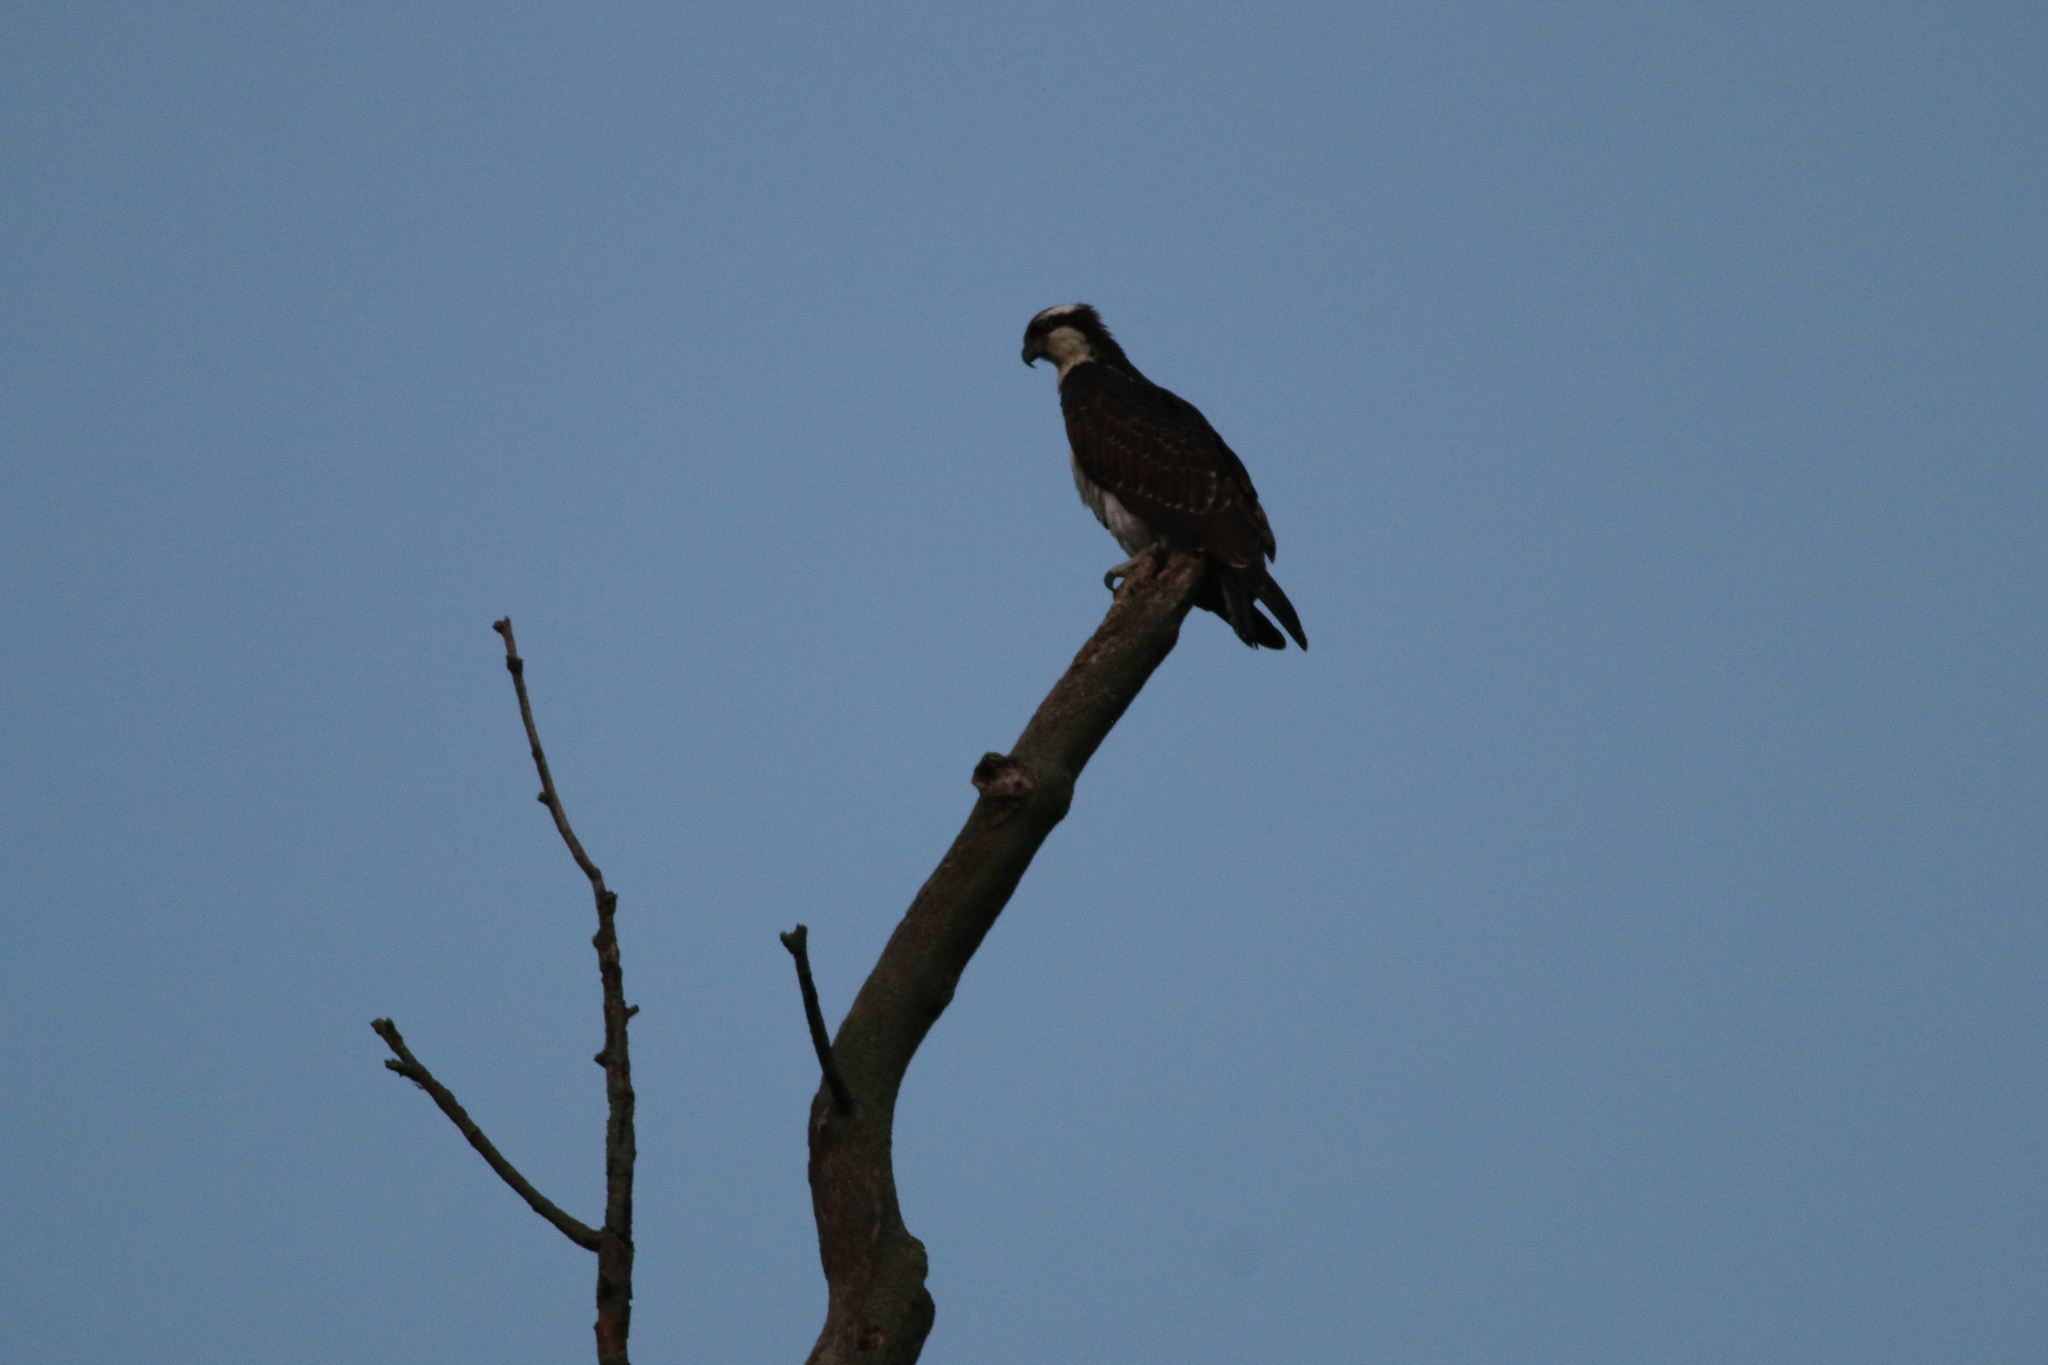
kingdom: Animalia
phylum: Chordata
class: Aves
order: Accipitriformes
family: Pandionidae
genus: Pandion
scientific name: Pandion haliaetus
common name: Osprey
